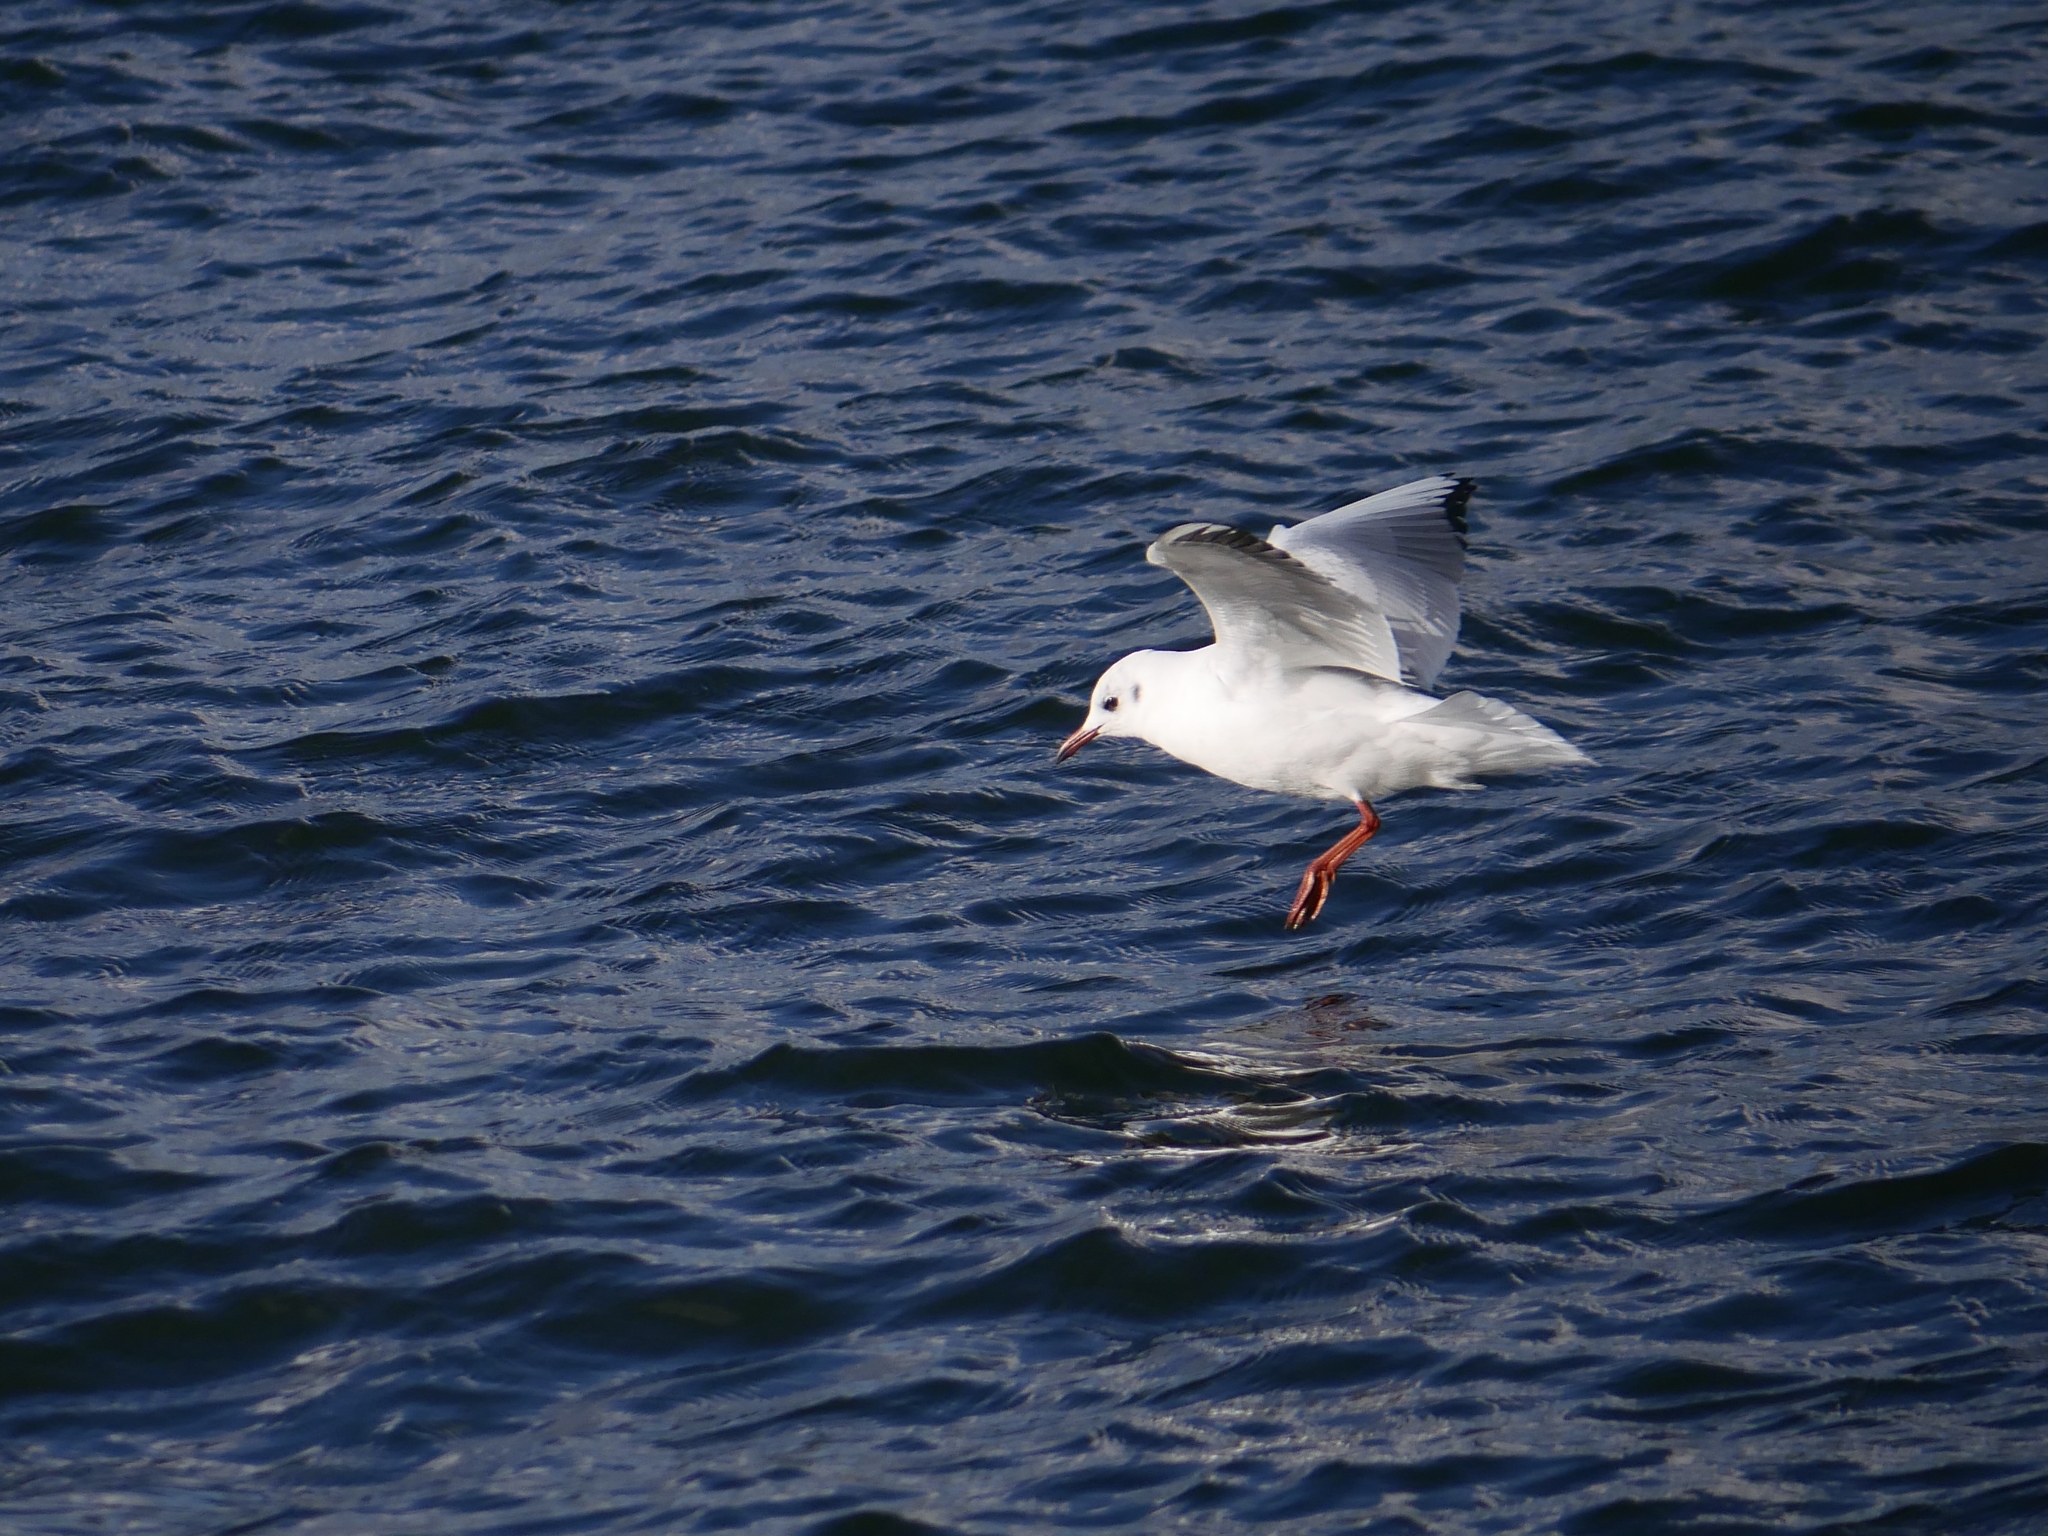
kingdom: Animalia
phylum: Chordata
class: Aves
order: Charadriiformes
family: Laridae
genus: Chroicocephalus
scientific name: Chroicocephalus ridibundus
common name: Black-headed gull
